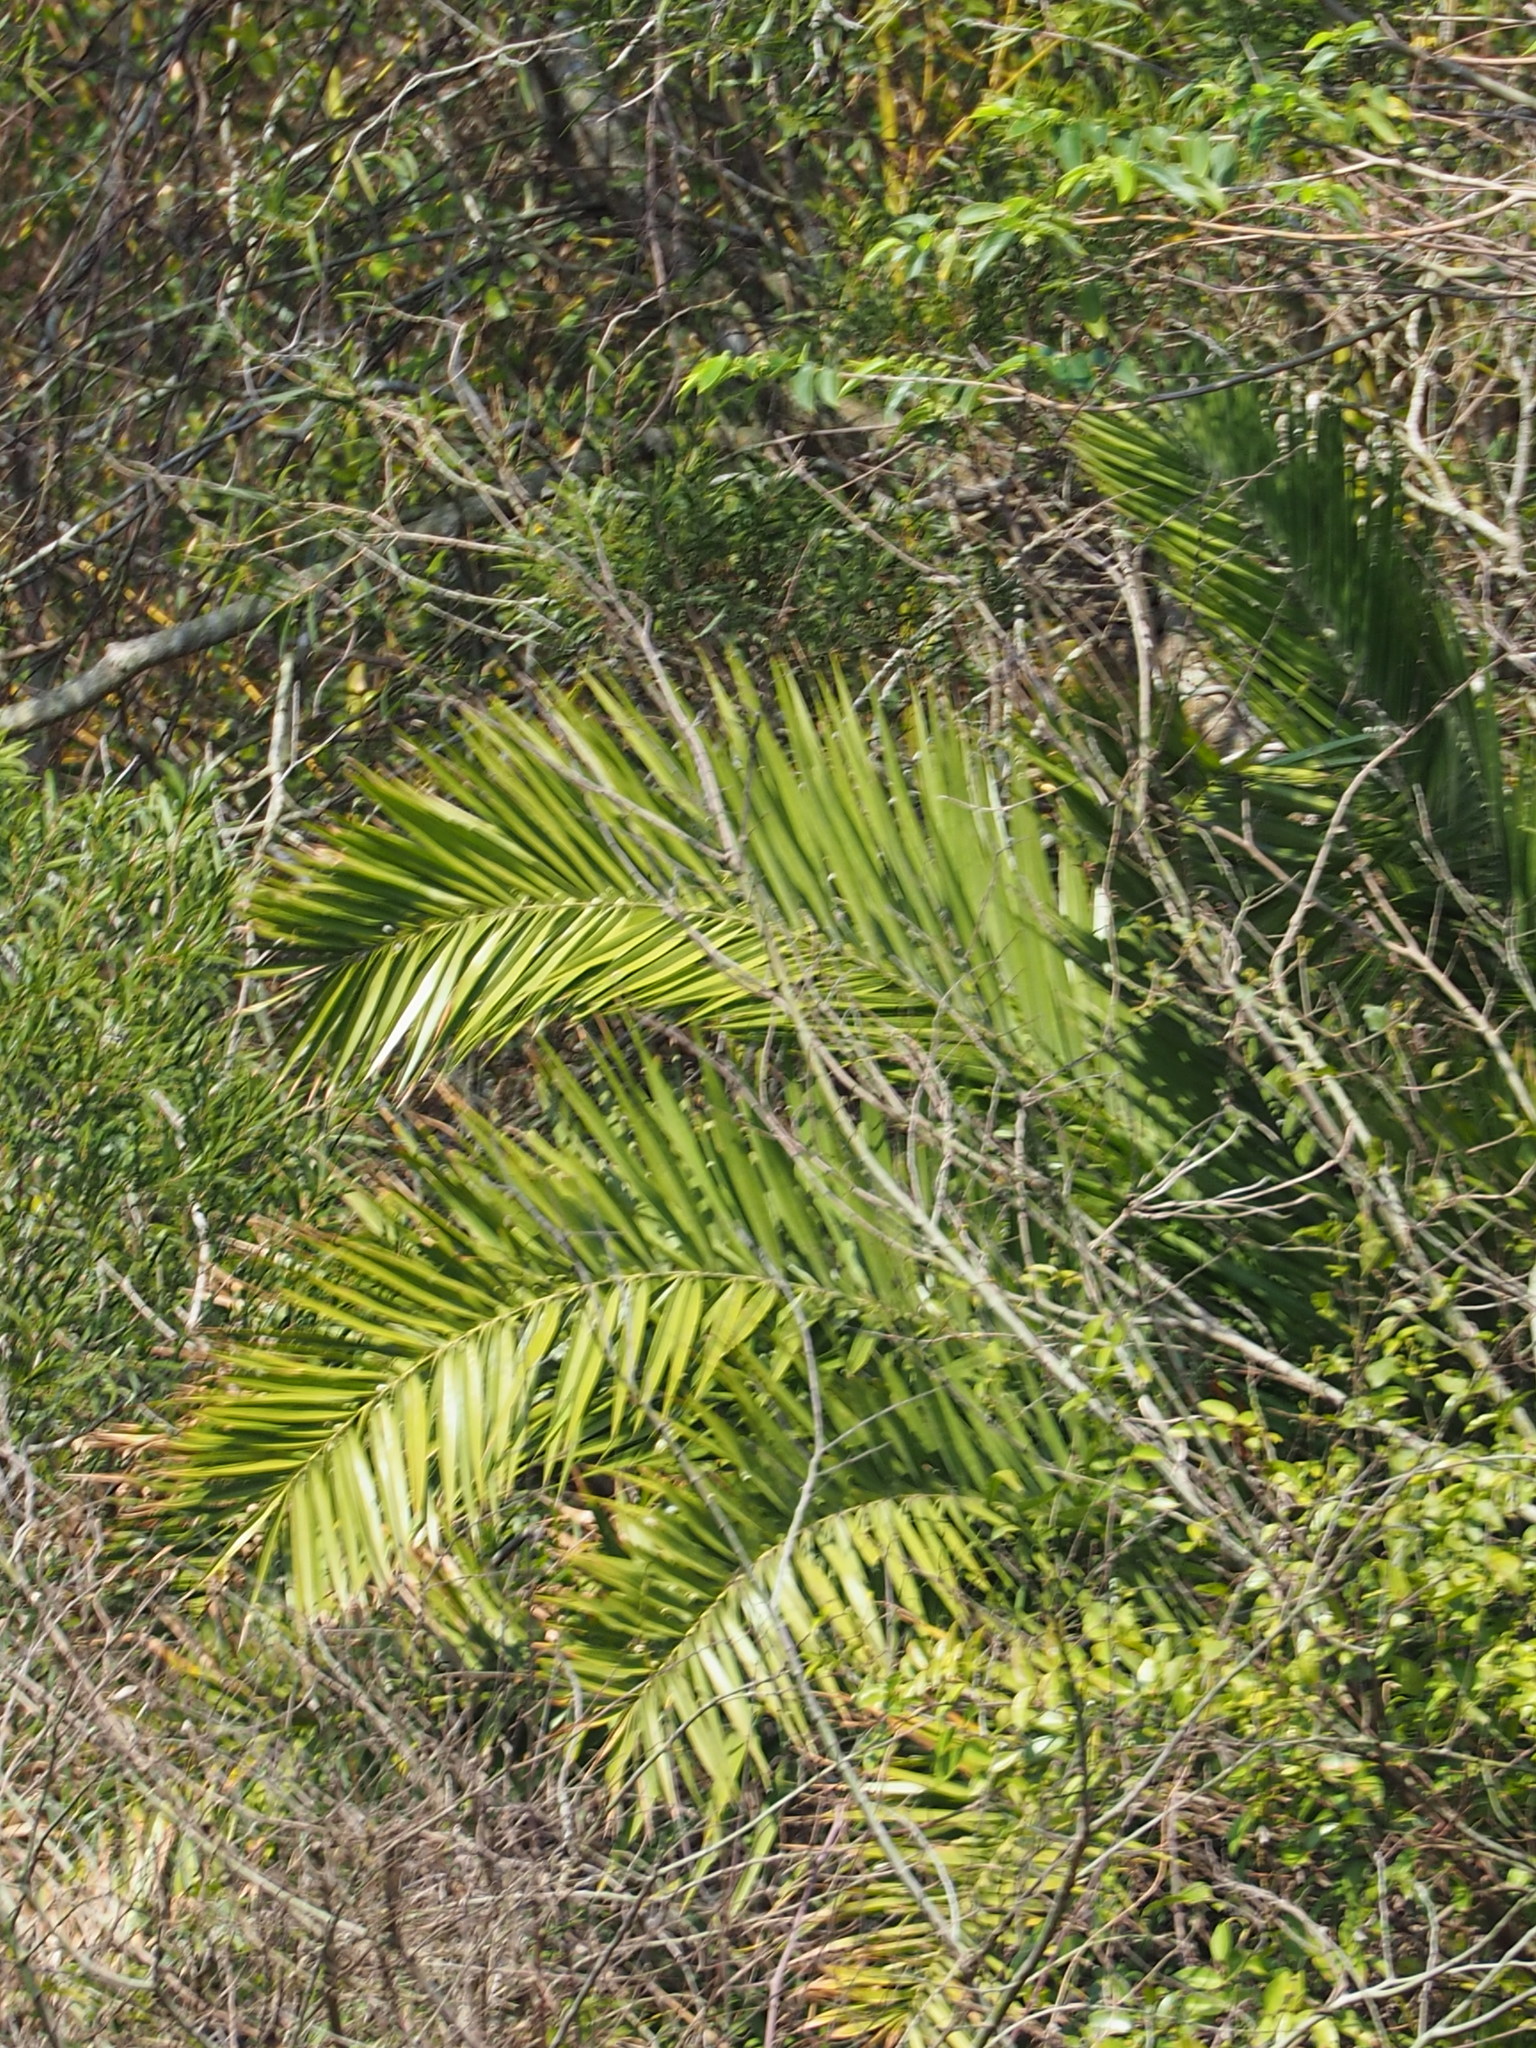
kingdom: Plantae
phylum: Tracheophyta
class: Liliopsida
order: Arecales
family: Arecaceae
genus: Phoenix
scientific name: Phoenix loureiroi
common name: Loureiro's palm
